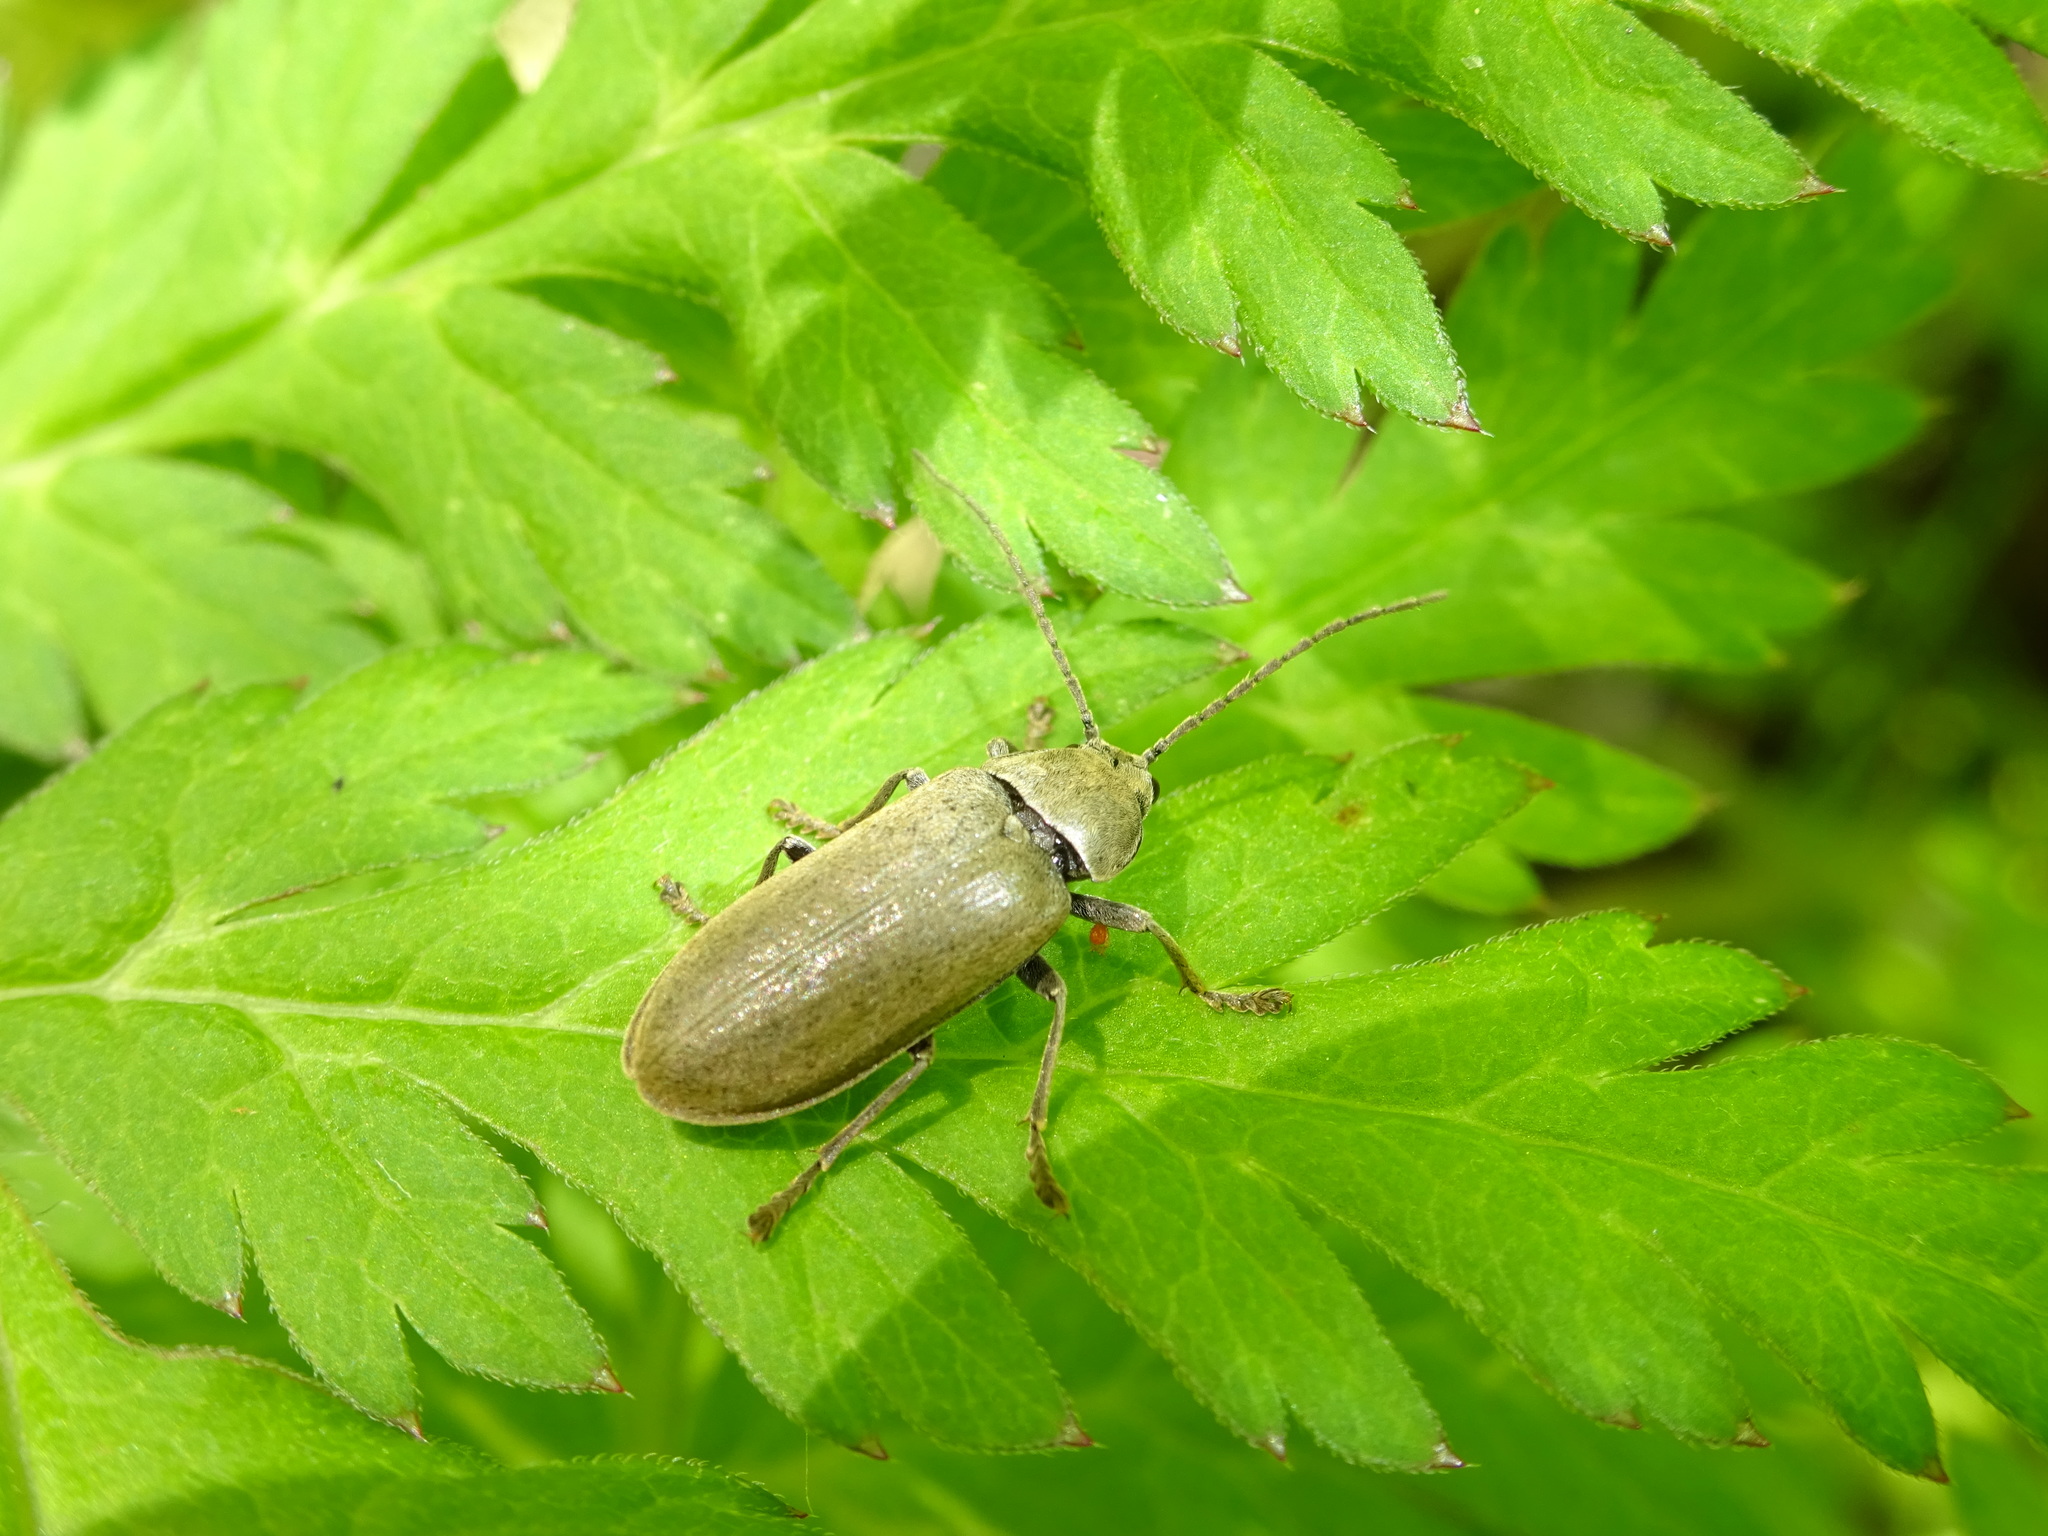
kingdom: Animalia
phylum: Arthropoda
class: Insecta
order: Coleoptera
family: Dascillidae
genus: Dascillus
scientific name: Dascillus cervinus
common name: Orchid beetle
